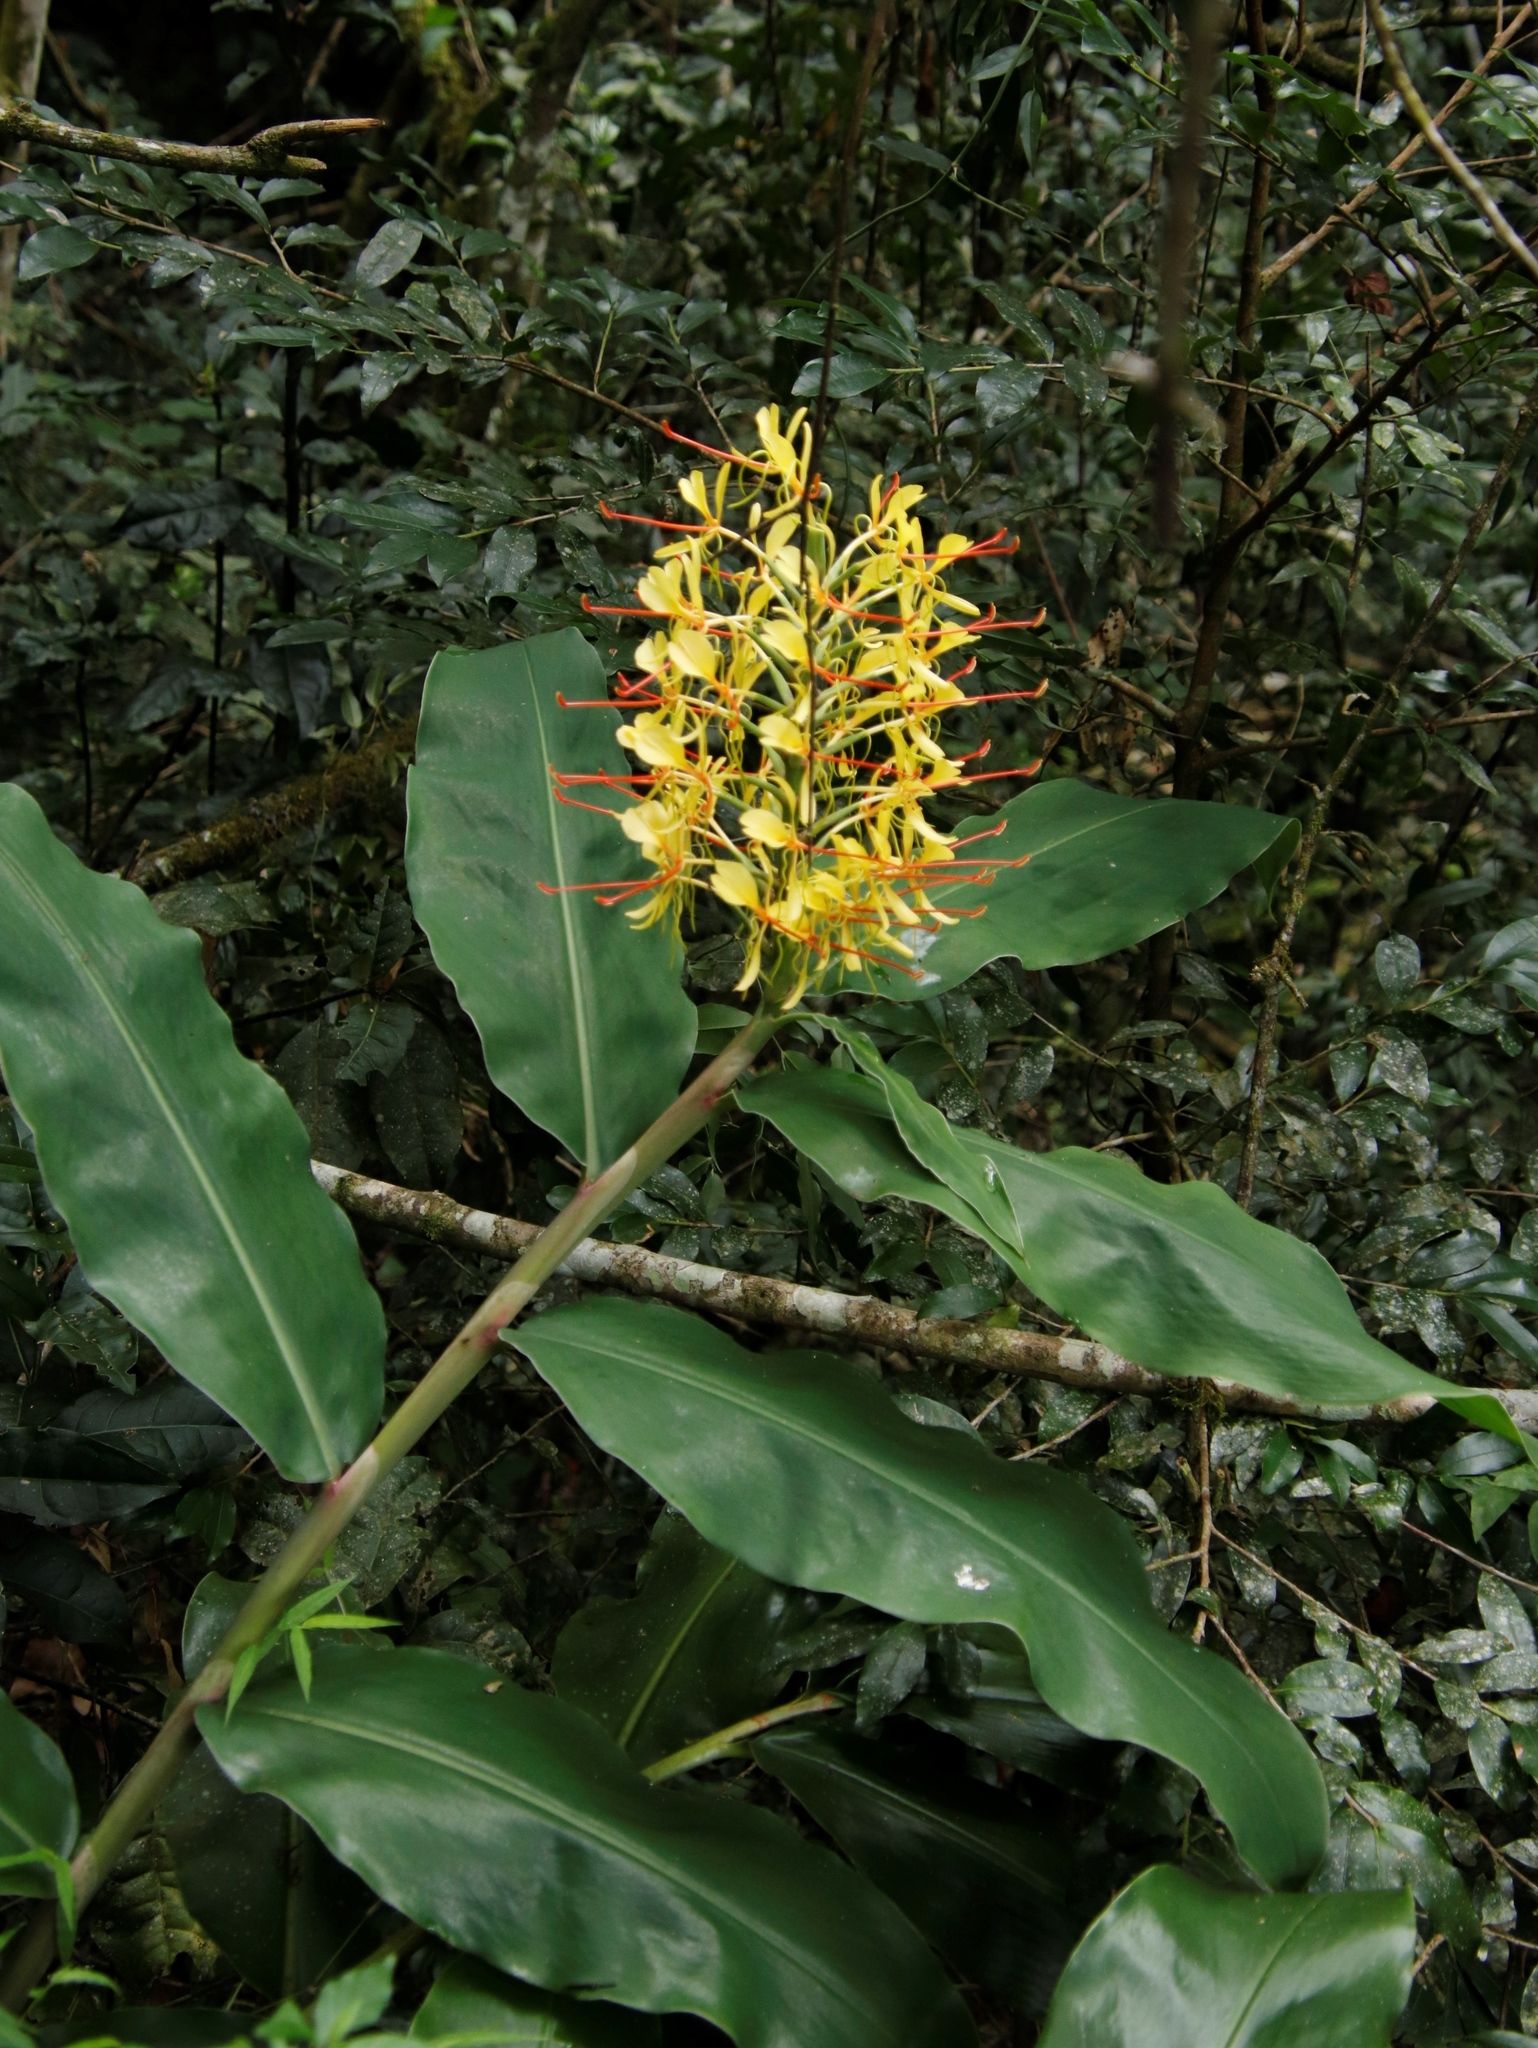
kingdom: Plantae
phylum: Tracheophyta
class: Liliopsida
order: Zingiberales
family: Zingiberaceae
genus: Hedychium
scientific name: Hedychium gardnerianum
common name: Himalayan ginger
